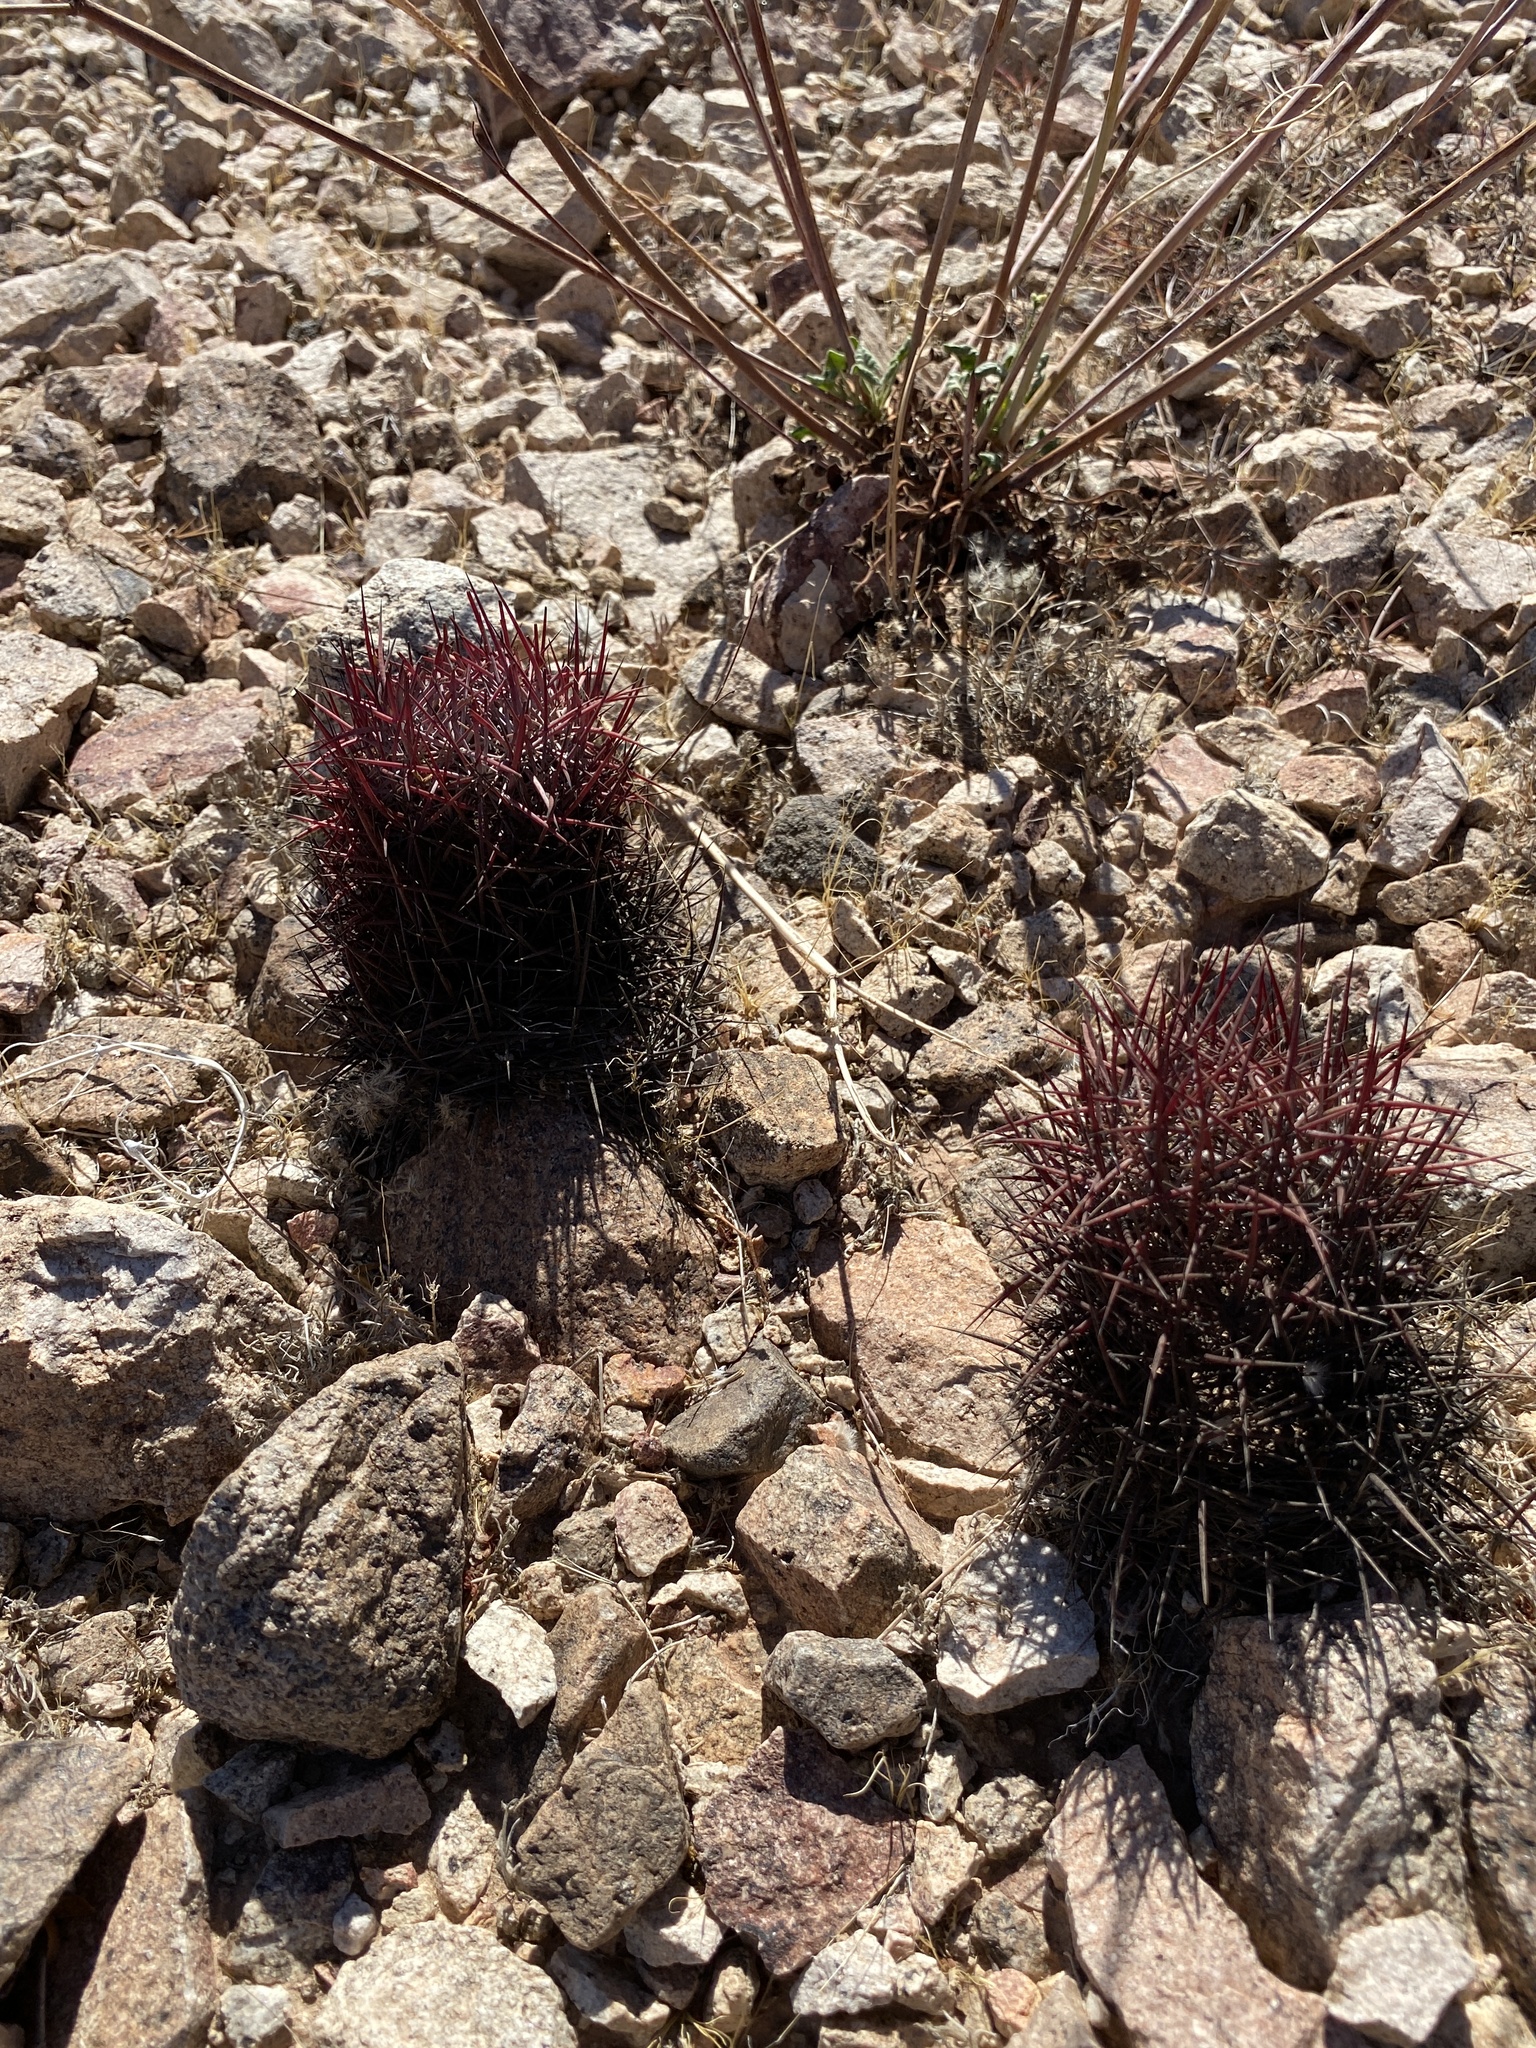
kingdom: Plantae
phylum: Tracheophyta
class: Magnoliopsida
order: Caryophyllales
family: Cactaceae
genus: Sclerocactus
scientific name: Sclerocactus johnsonii
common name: Eight-spine fishhook cactus
